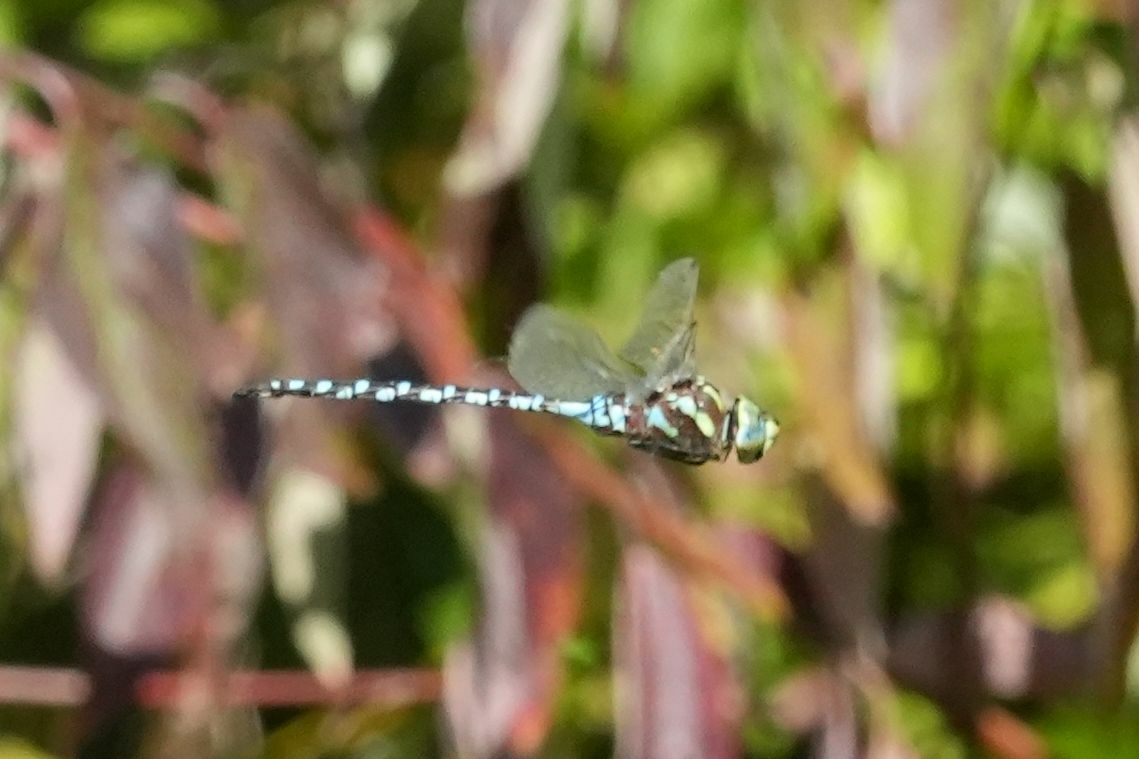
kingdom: Animalia
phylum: Arthropoda
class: Insecta
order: Odonata
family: Aeshnidae
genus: Aeshna
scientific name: Aeshna constricta
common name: Lance-tipped darner
